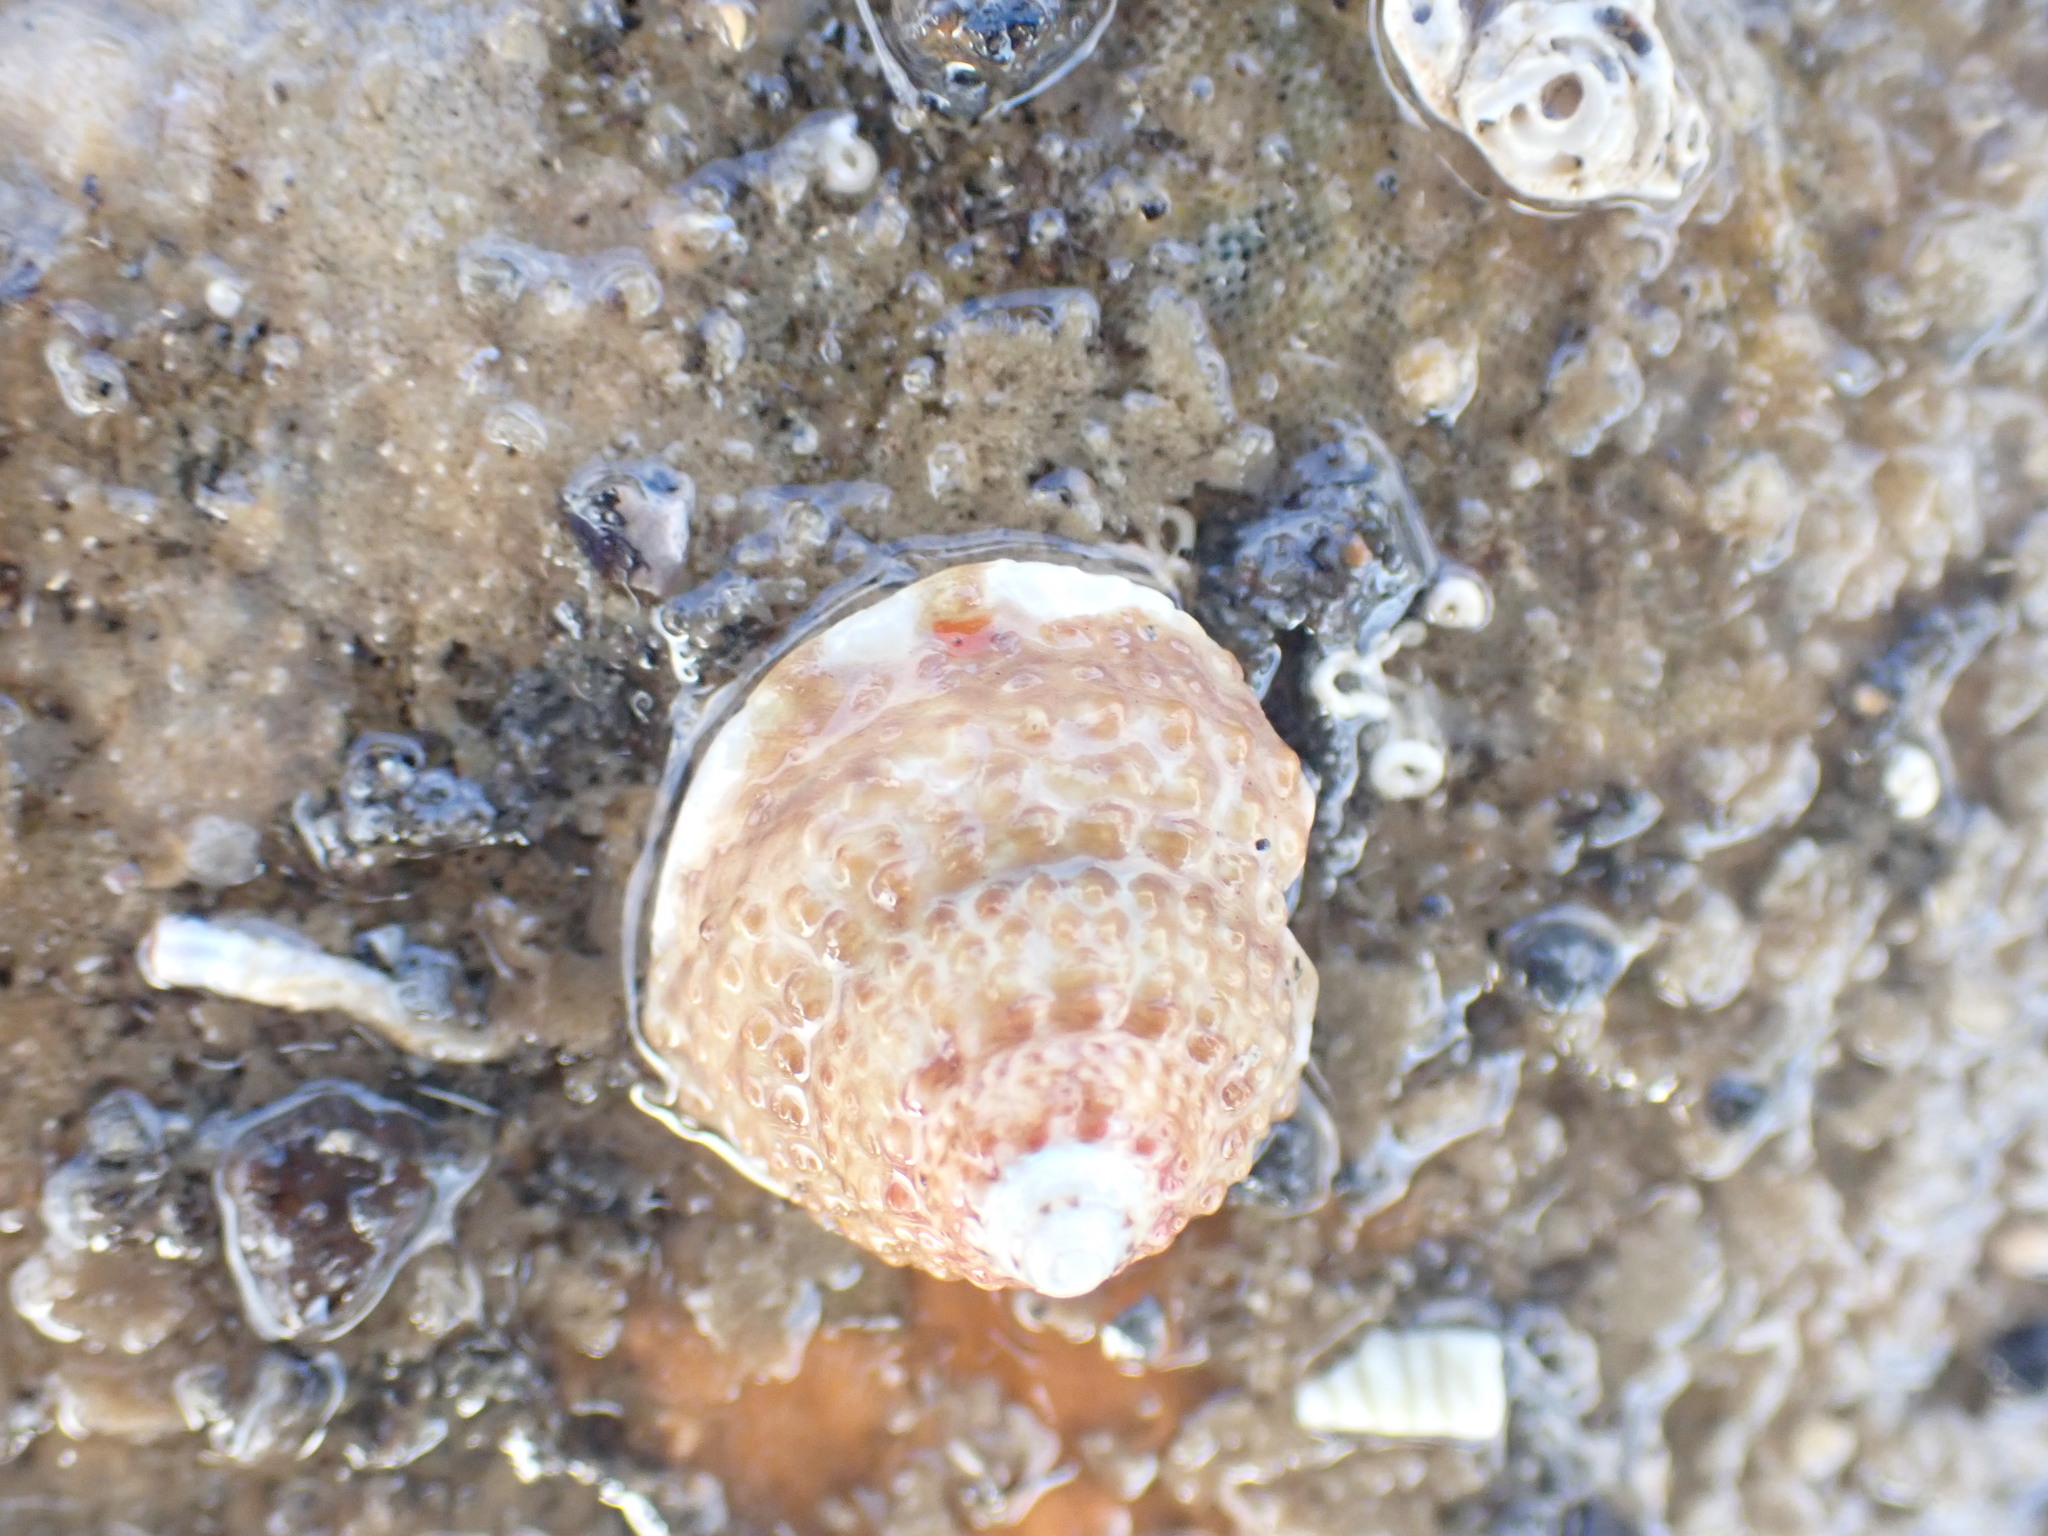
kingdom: Animalia
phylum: Mollusca
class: Gastropoda
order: Trochida
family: Trochidae
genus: Coelotrochus
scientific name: Coelotrochus viridis
